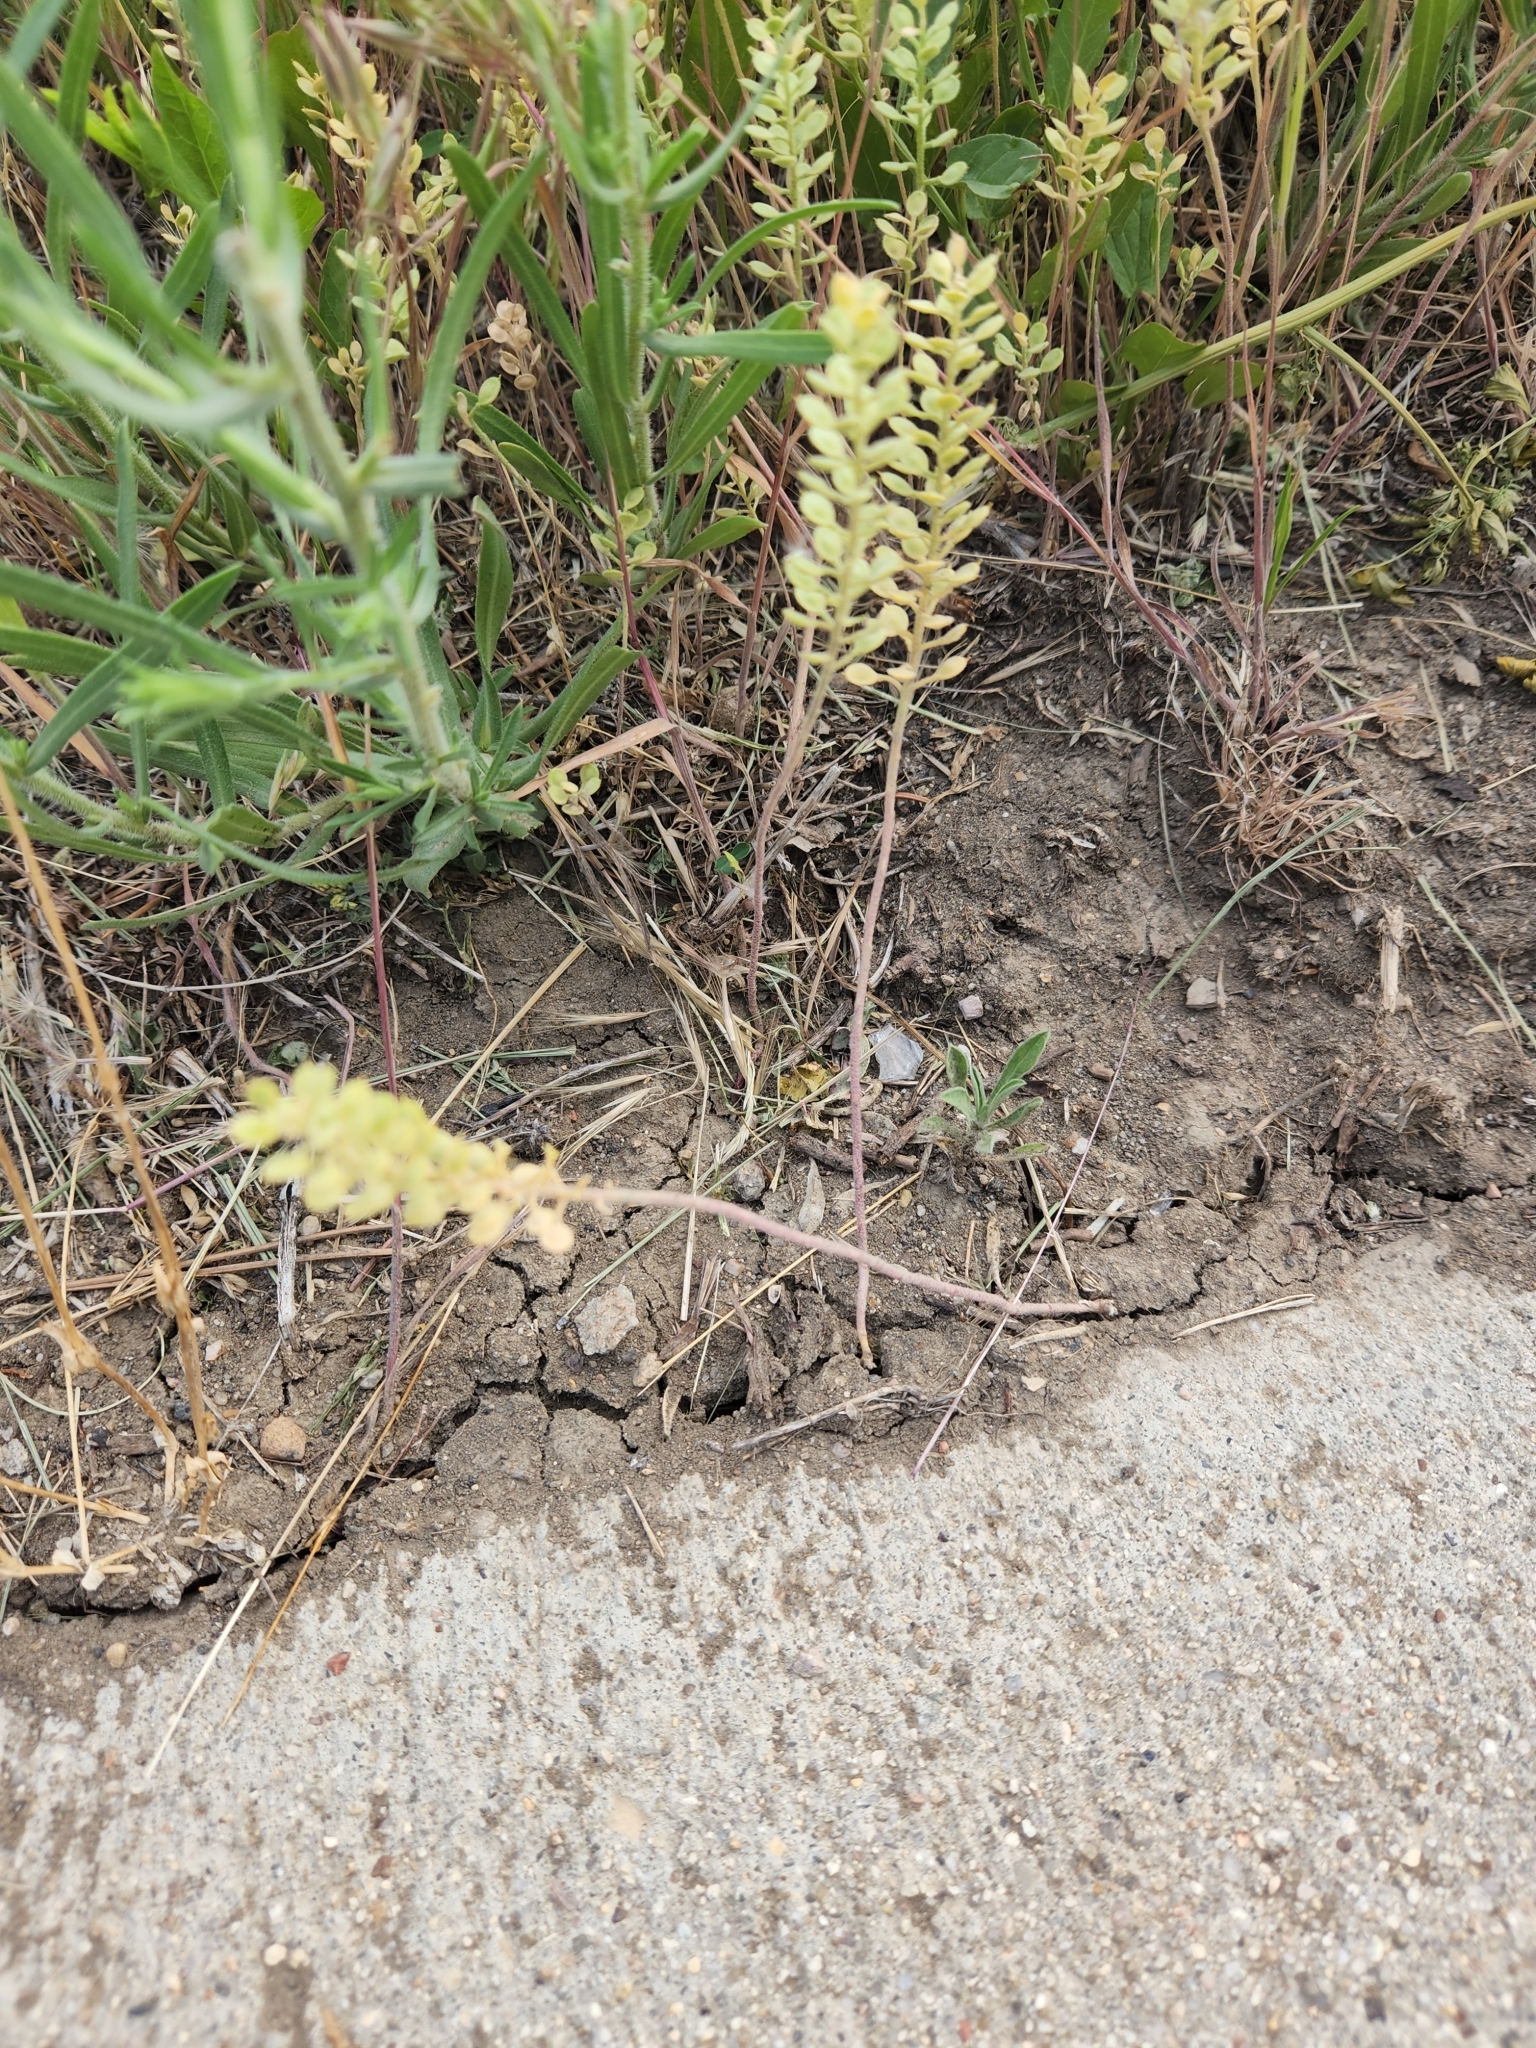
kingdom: Plantae
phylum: Tracheophyta
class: Magnoliopsida
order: Brassicales
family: Brassicaceae
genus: Alyssum
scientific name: Alyssum simplex
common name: Alyssum
